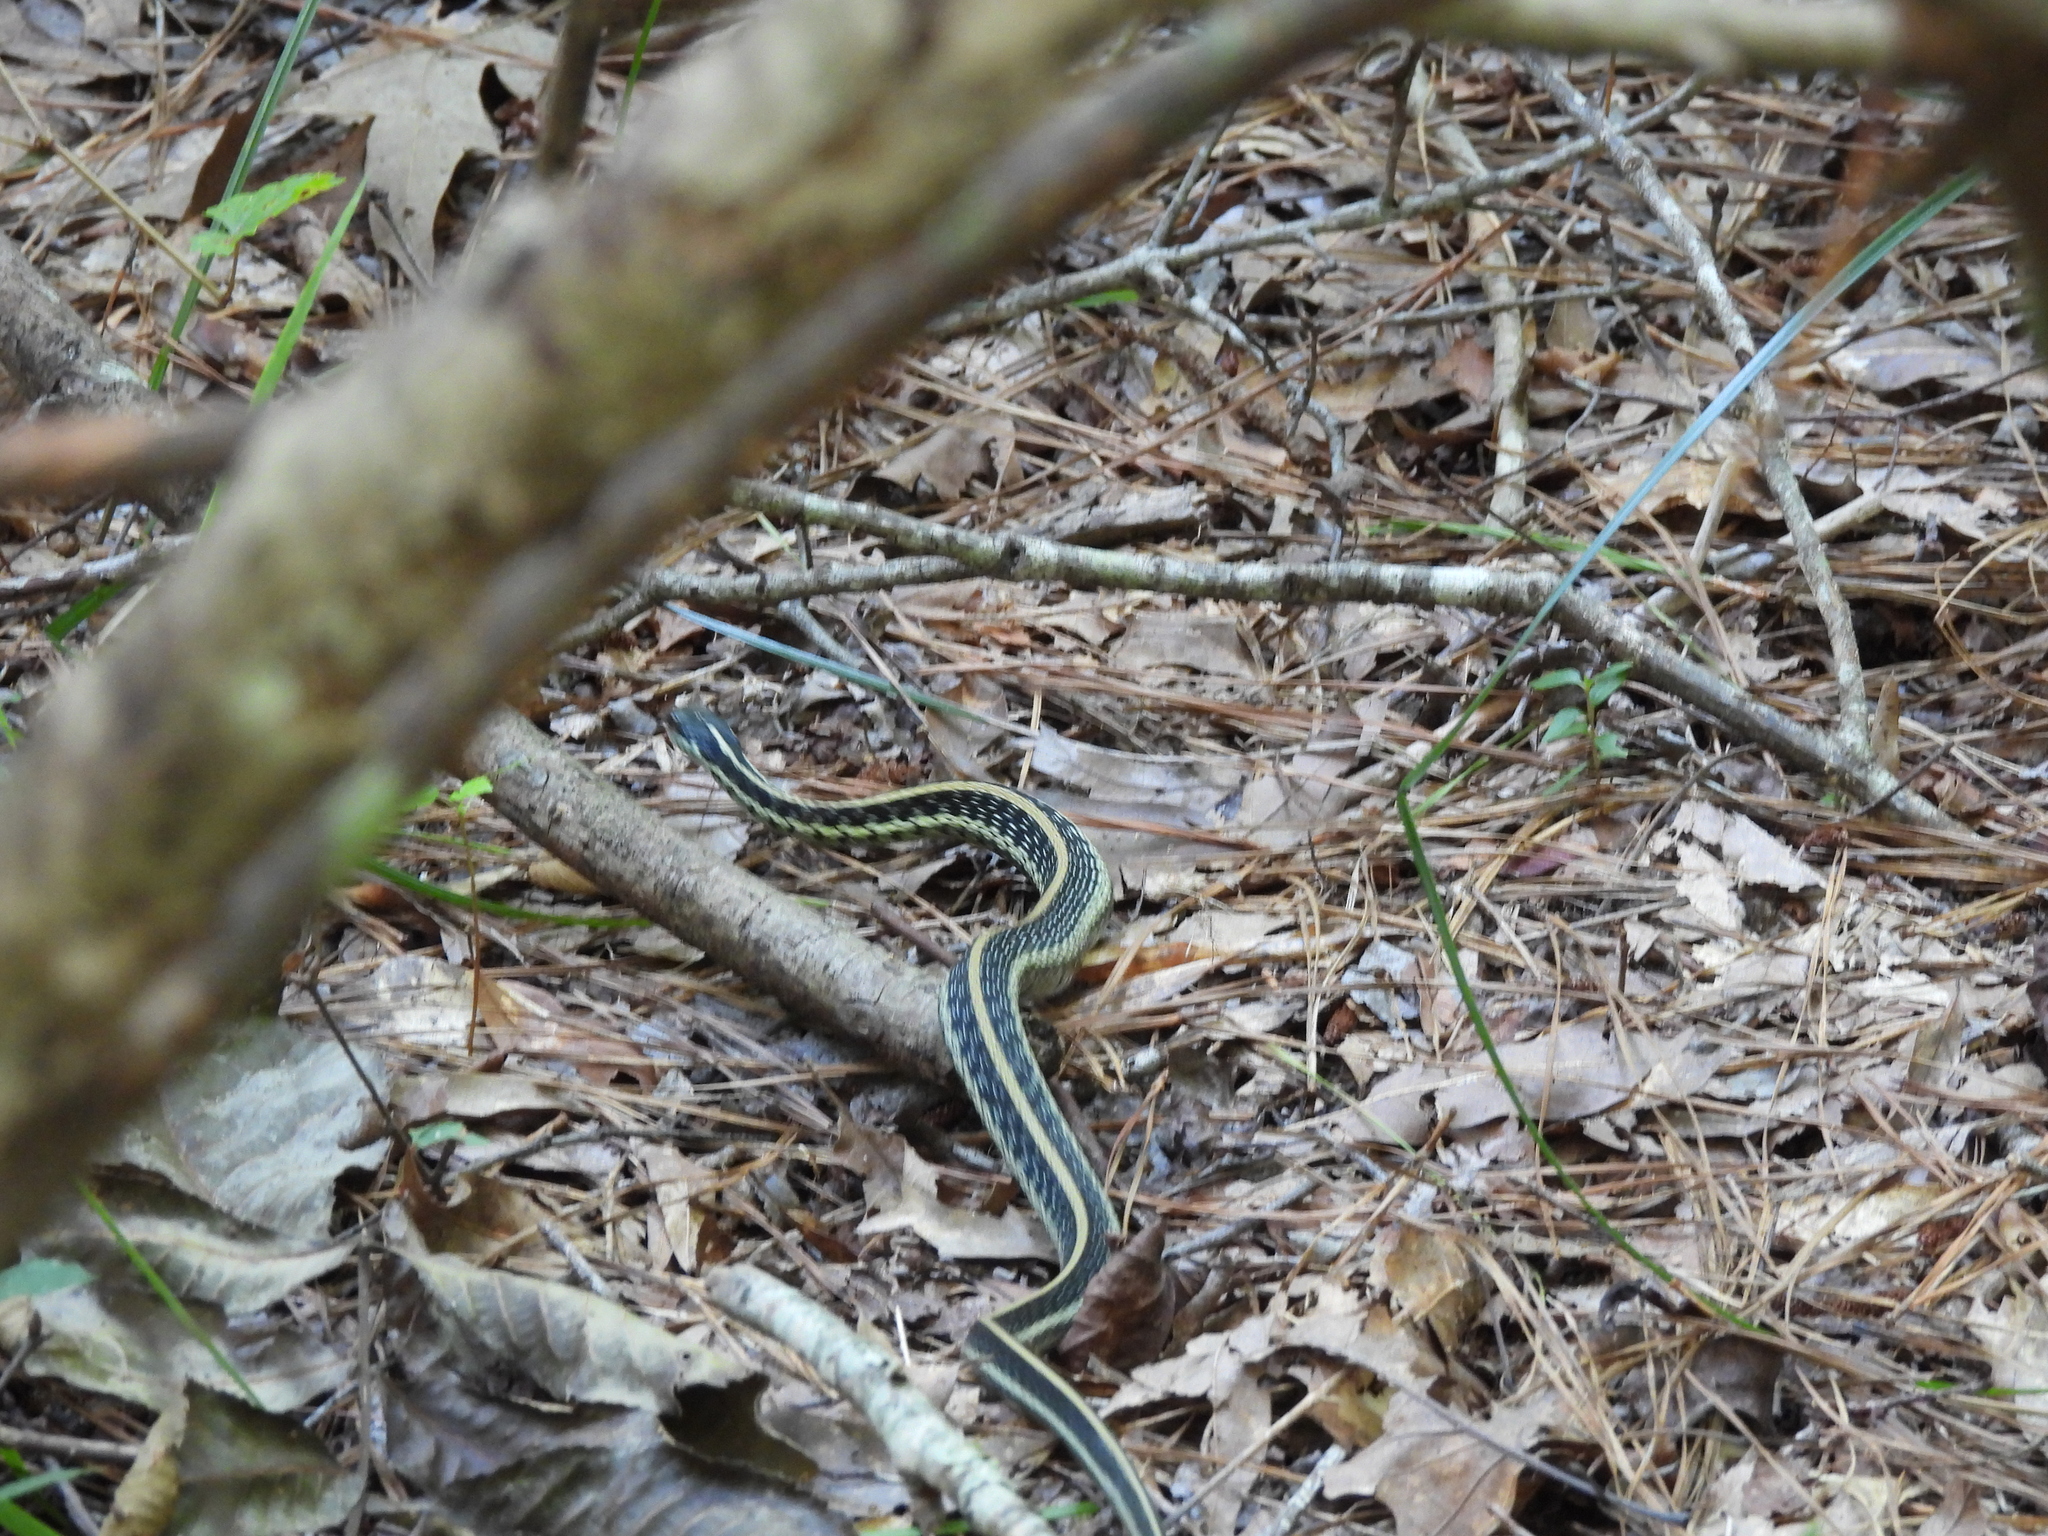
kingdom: Animalia
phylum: Chordata
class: Squamata
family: Colubridae
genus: Thamnophis
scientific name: Thamnophis sirtalis
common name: Common garter snake
